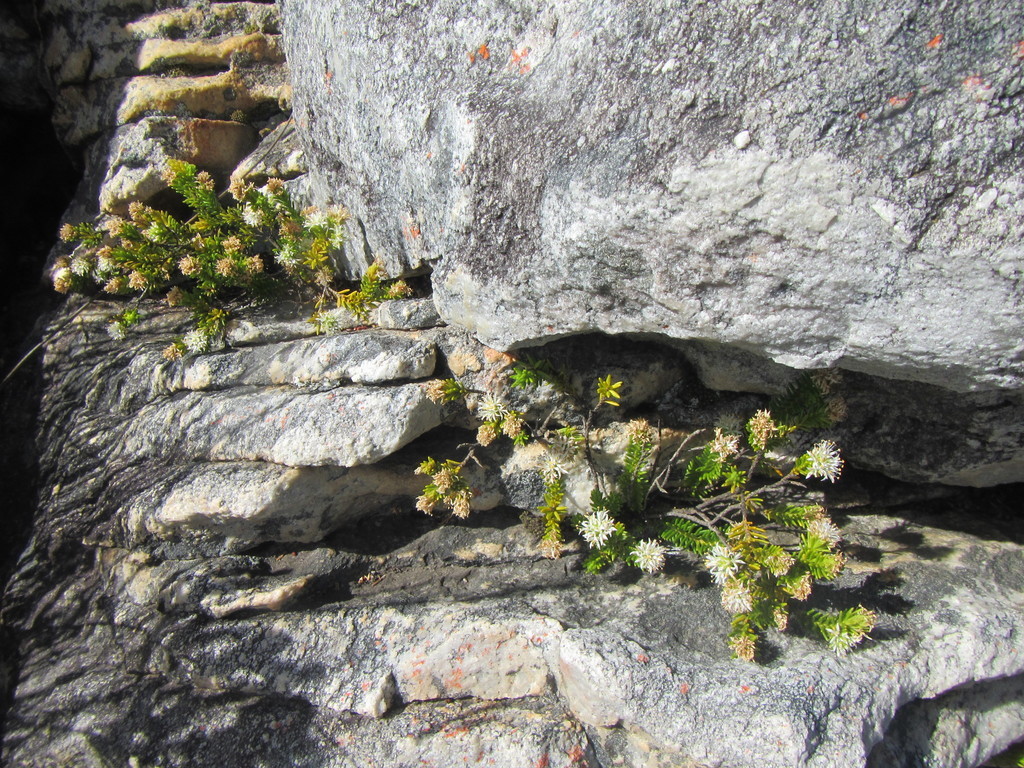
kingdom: Plantae
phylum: Tracheophyta
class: Magnoliopsida
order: Lamiales
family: Stilbaceae
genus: Stilbe
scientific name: Stilbe rupestris
